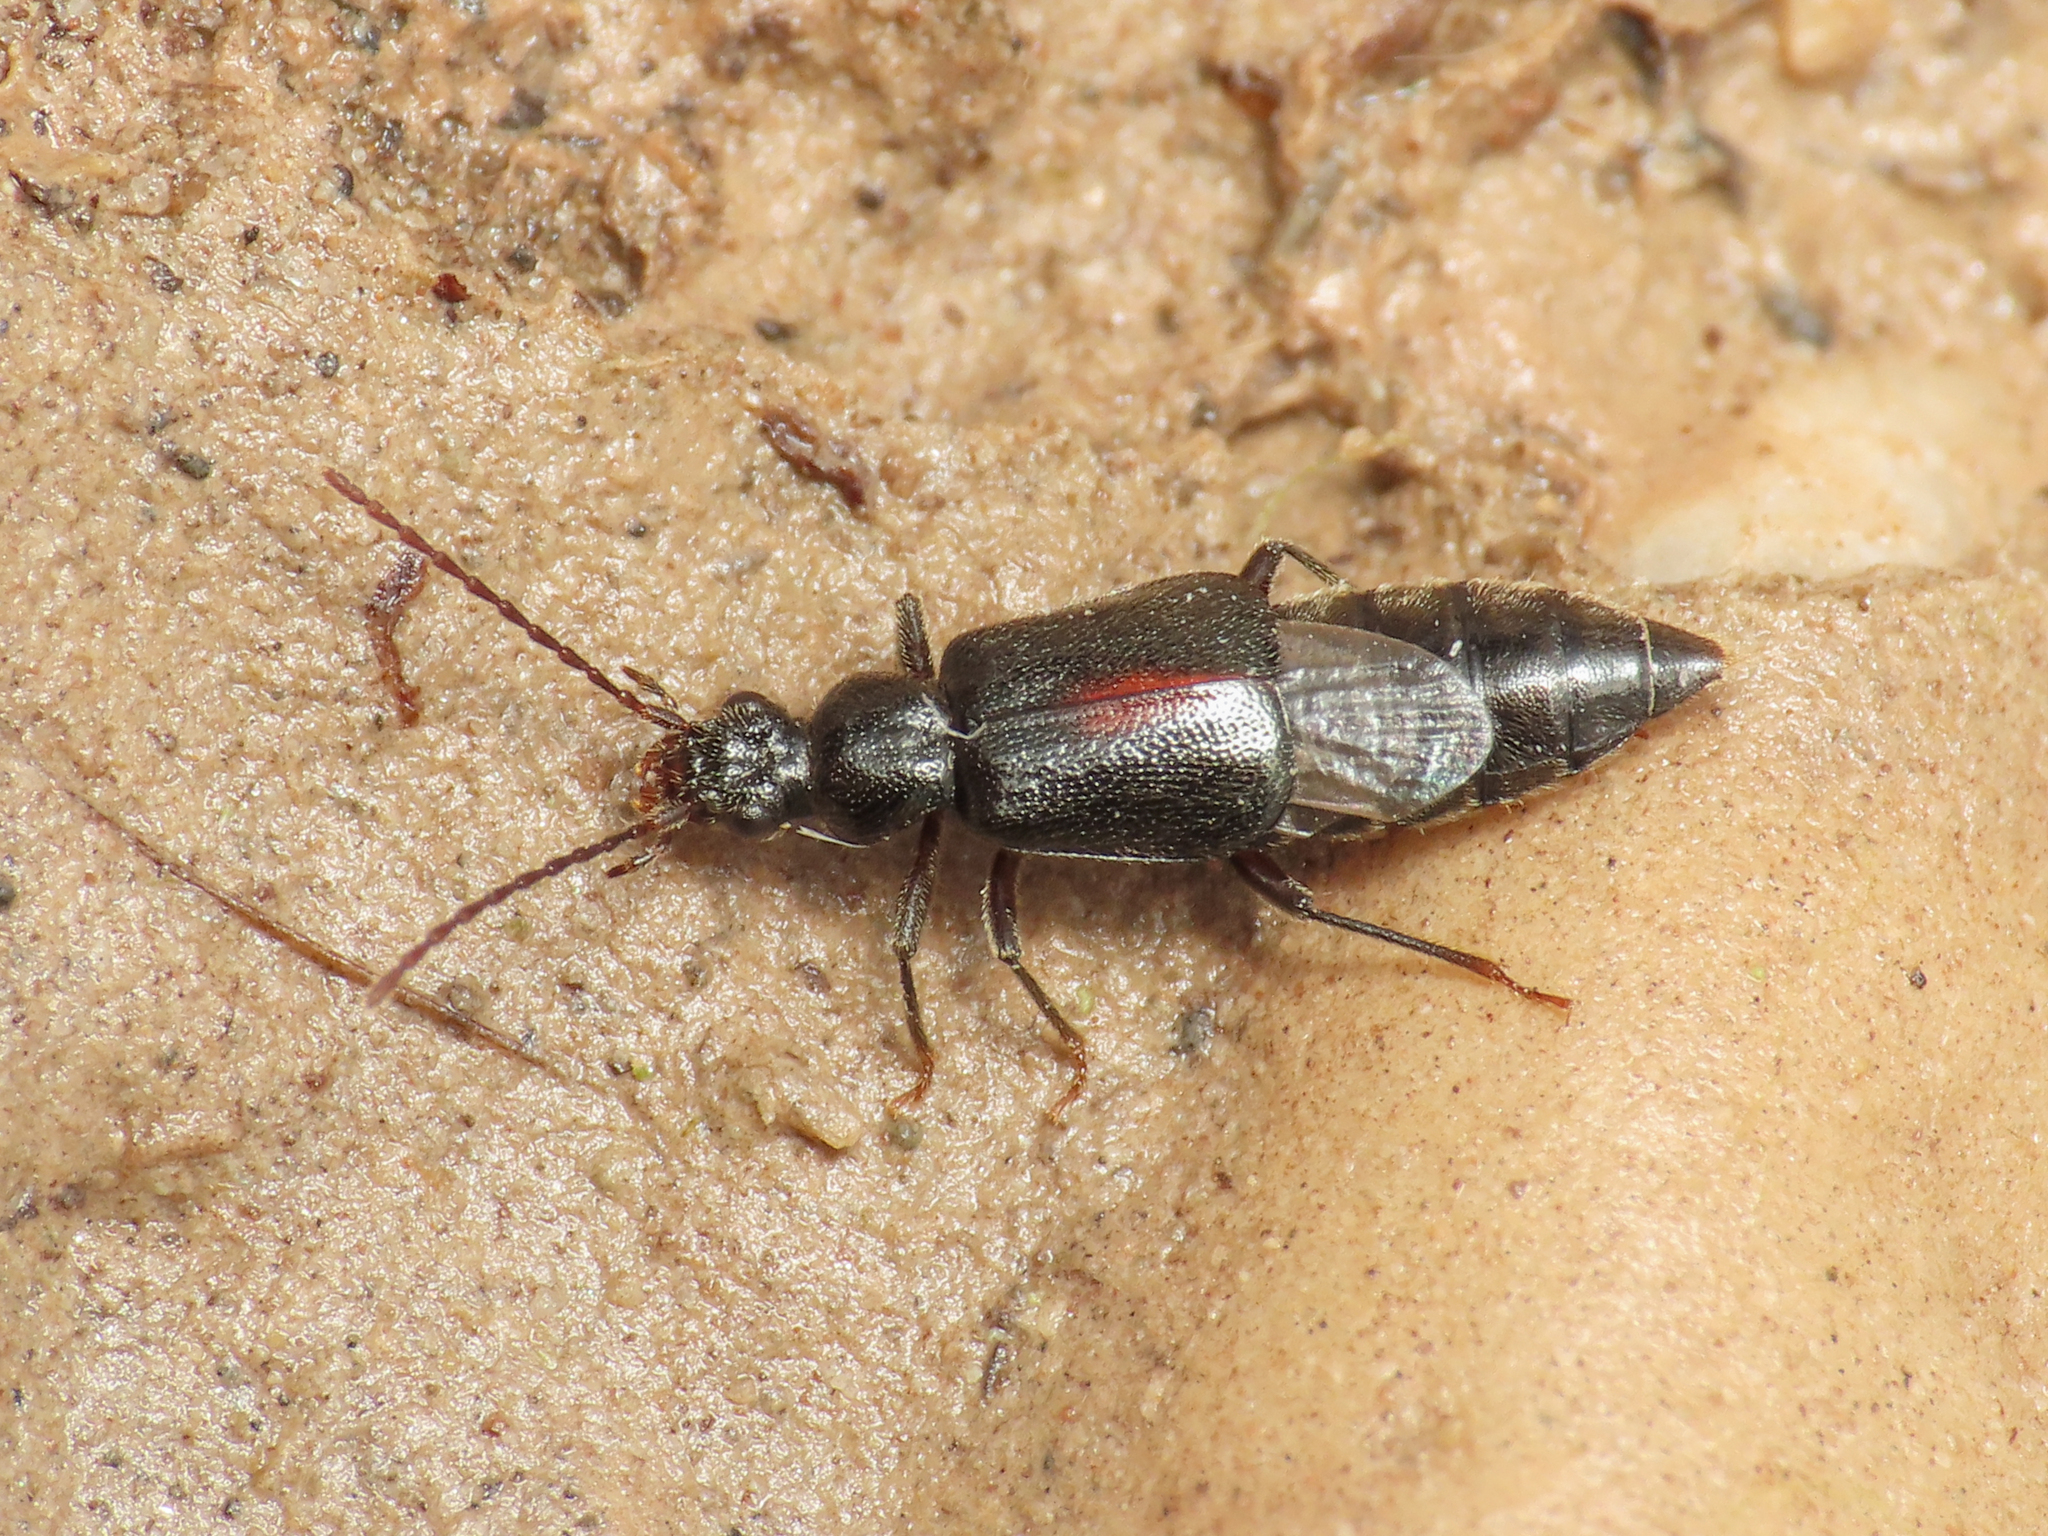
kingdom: Animalia
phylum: Arthropoda
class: Insecta
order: Coleoptera
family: Staphylinidae
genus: Geodromicus
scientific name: Geodromicus suturalis
